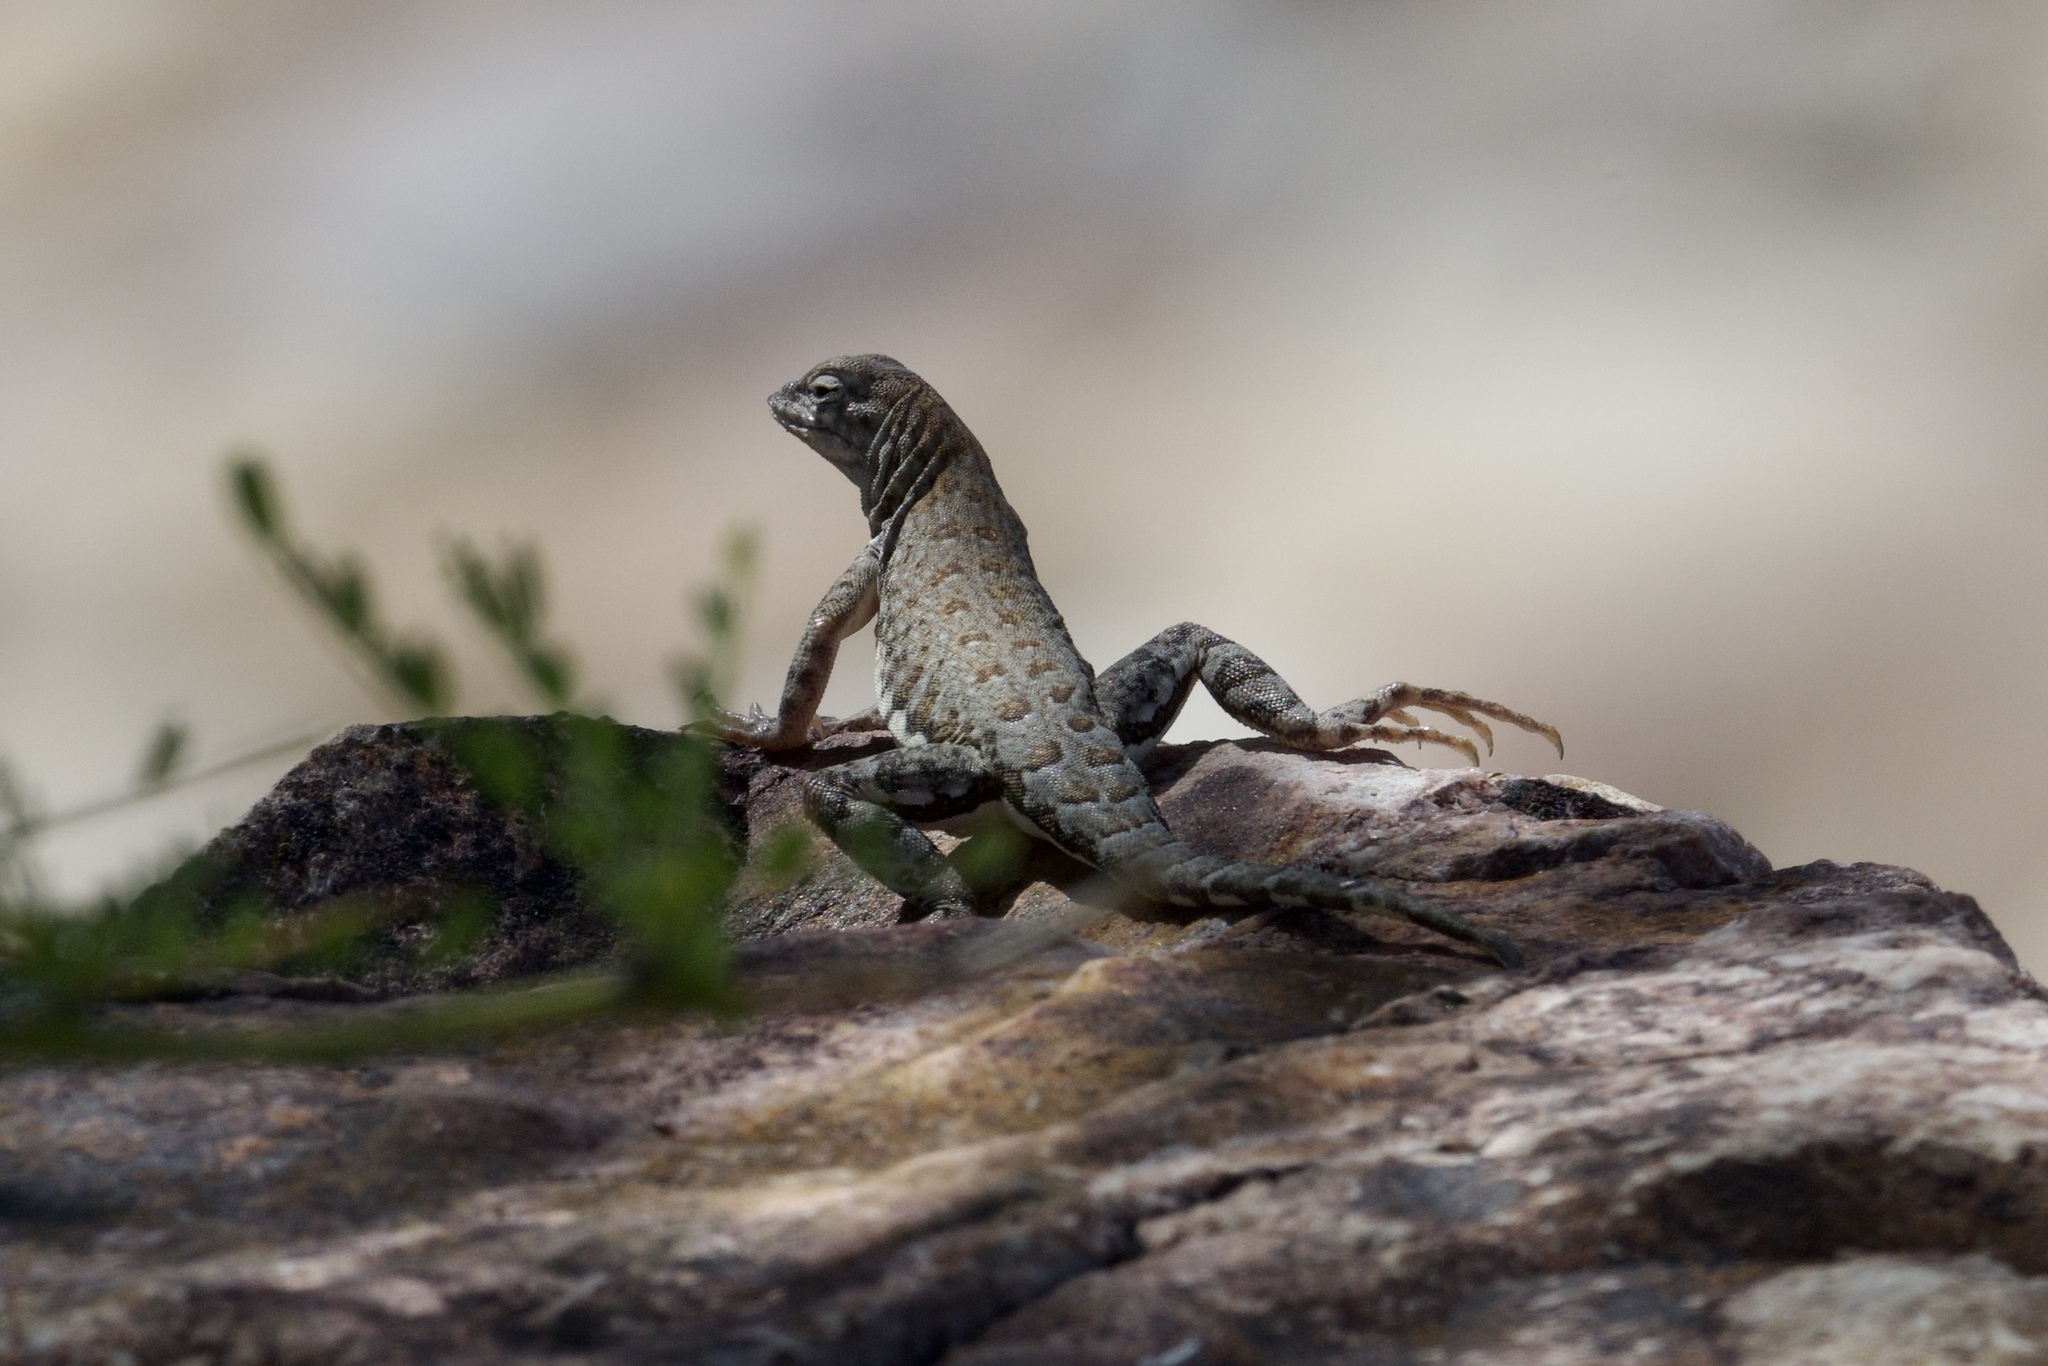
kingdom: Animalia
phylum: Chordata
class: Squamata
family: Phrynosomatidae
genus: Cophosaurus
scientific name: Cophosaurus texanus
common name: Greater earless lizard
